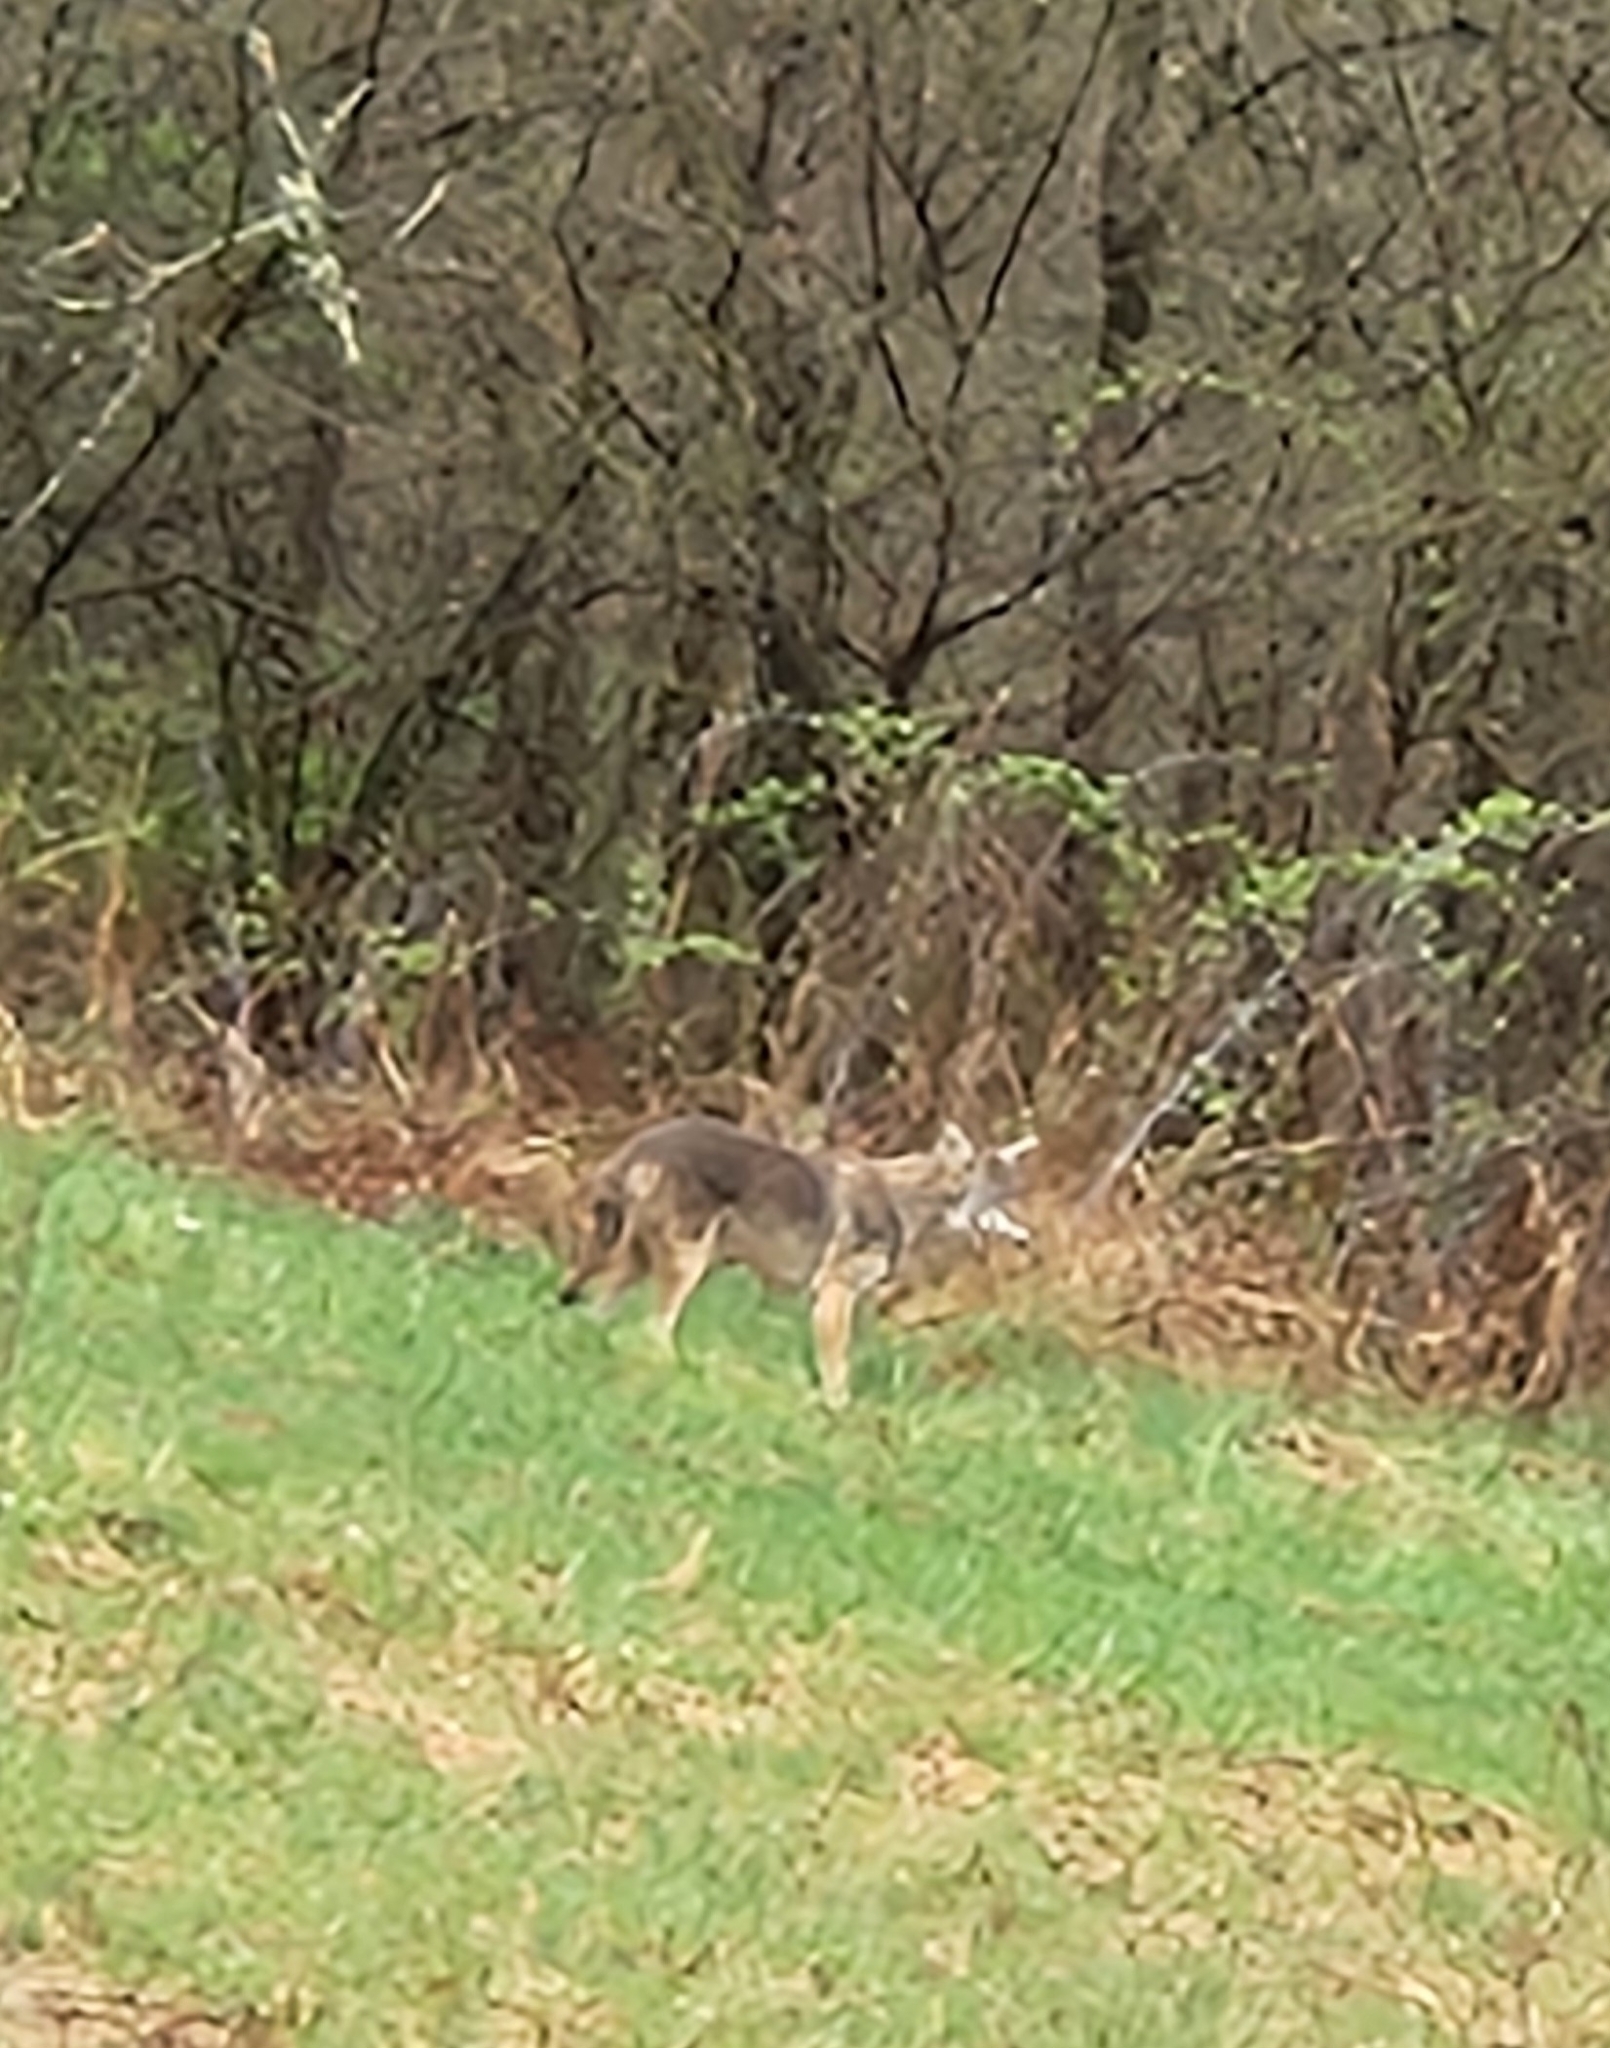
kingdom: Animalia
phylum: Chordata
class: Mammalia
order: Carnivora
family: Canidae
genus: Canis
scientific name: Canis latrans
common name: Coyote
